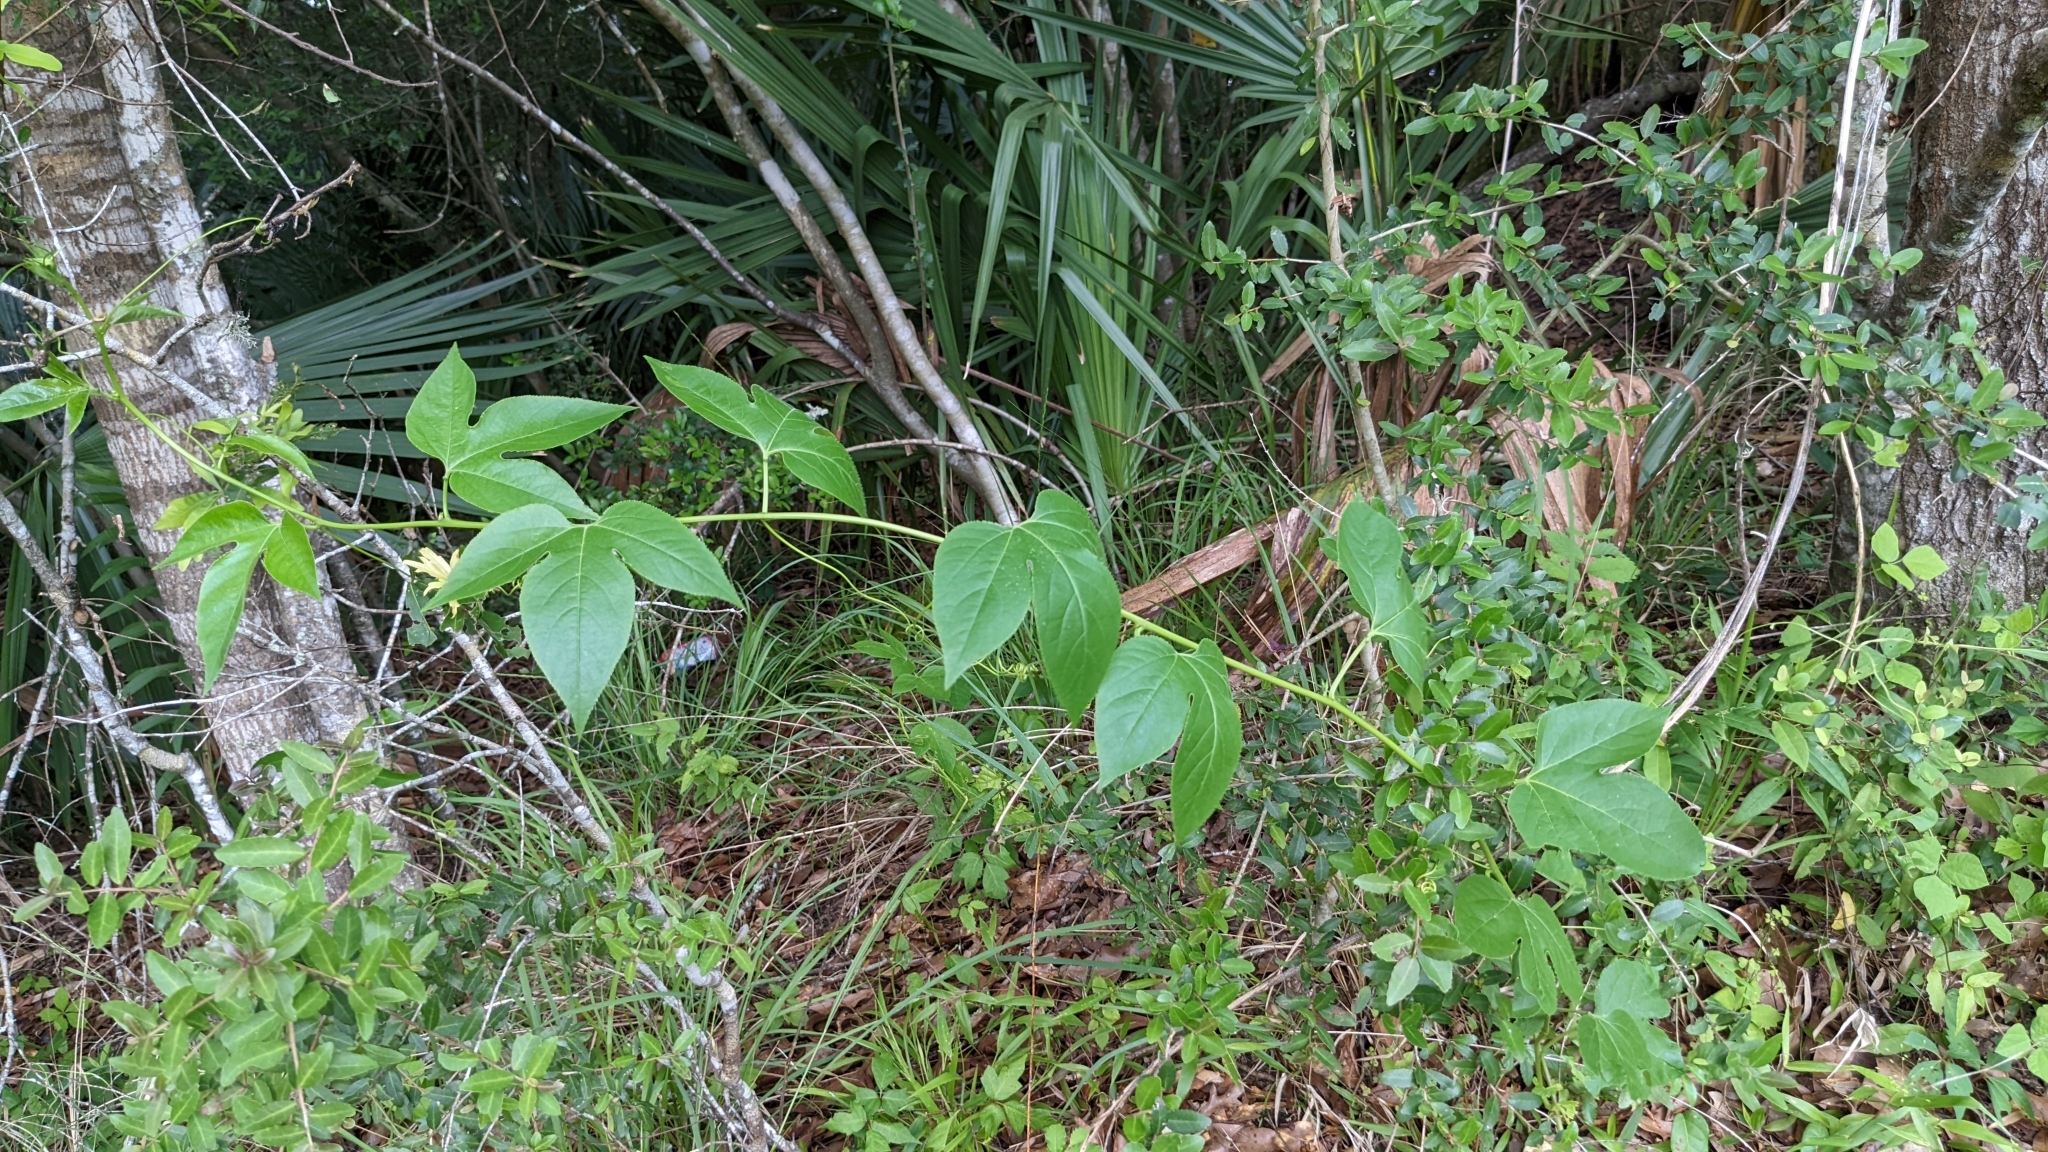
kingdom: Plantae
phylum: Tracheophyta
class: Magnoliopsida
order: Malpighiales
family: Passifloraceae
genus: Passiflora
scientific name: Passiflora incarnata
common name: Apricot-vine
